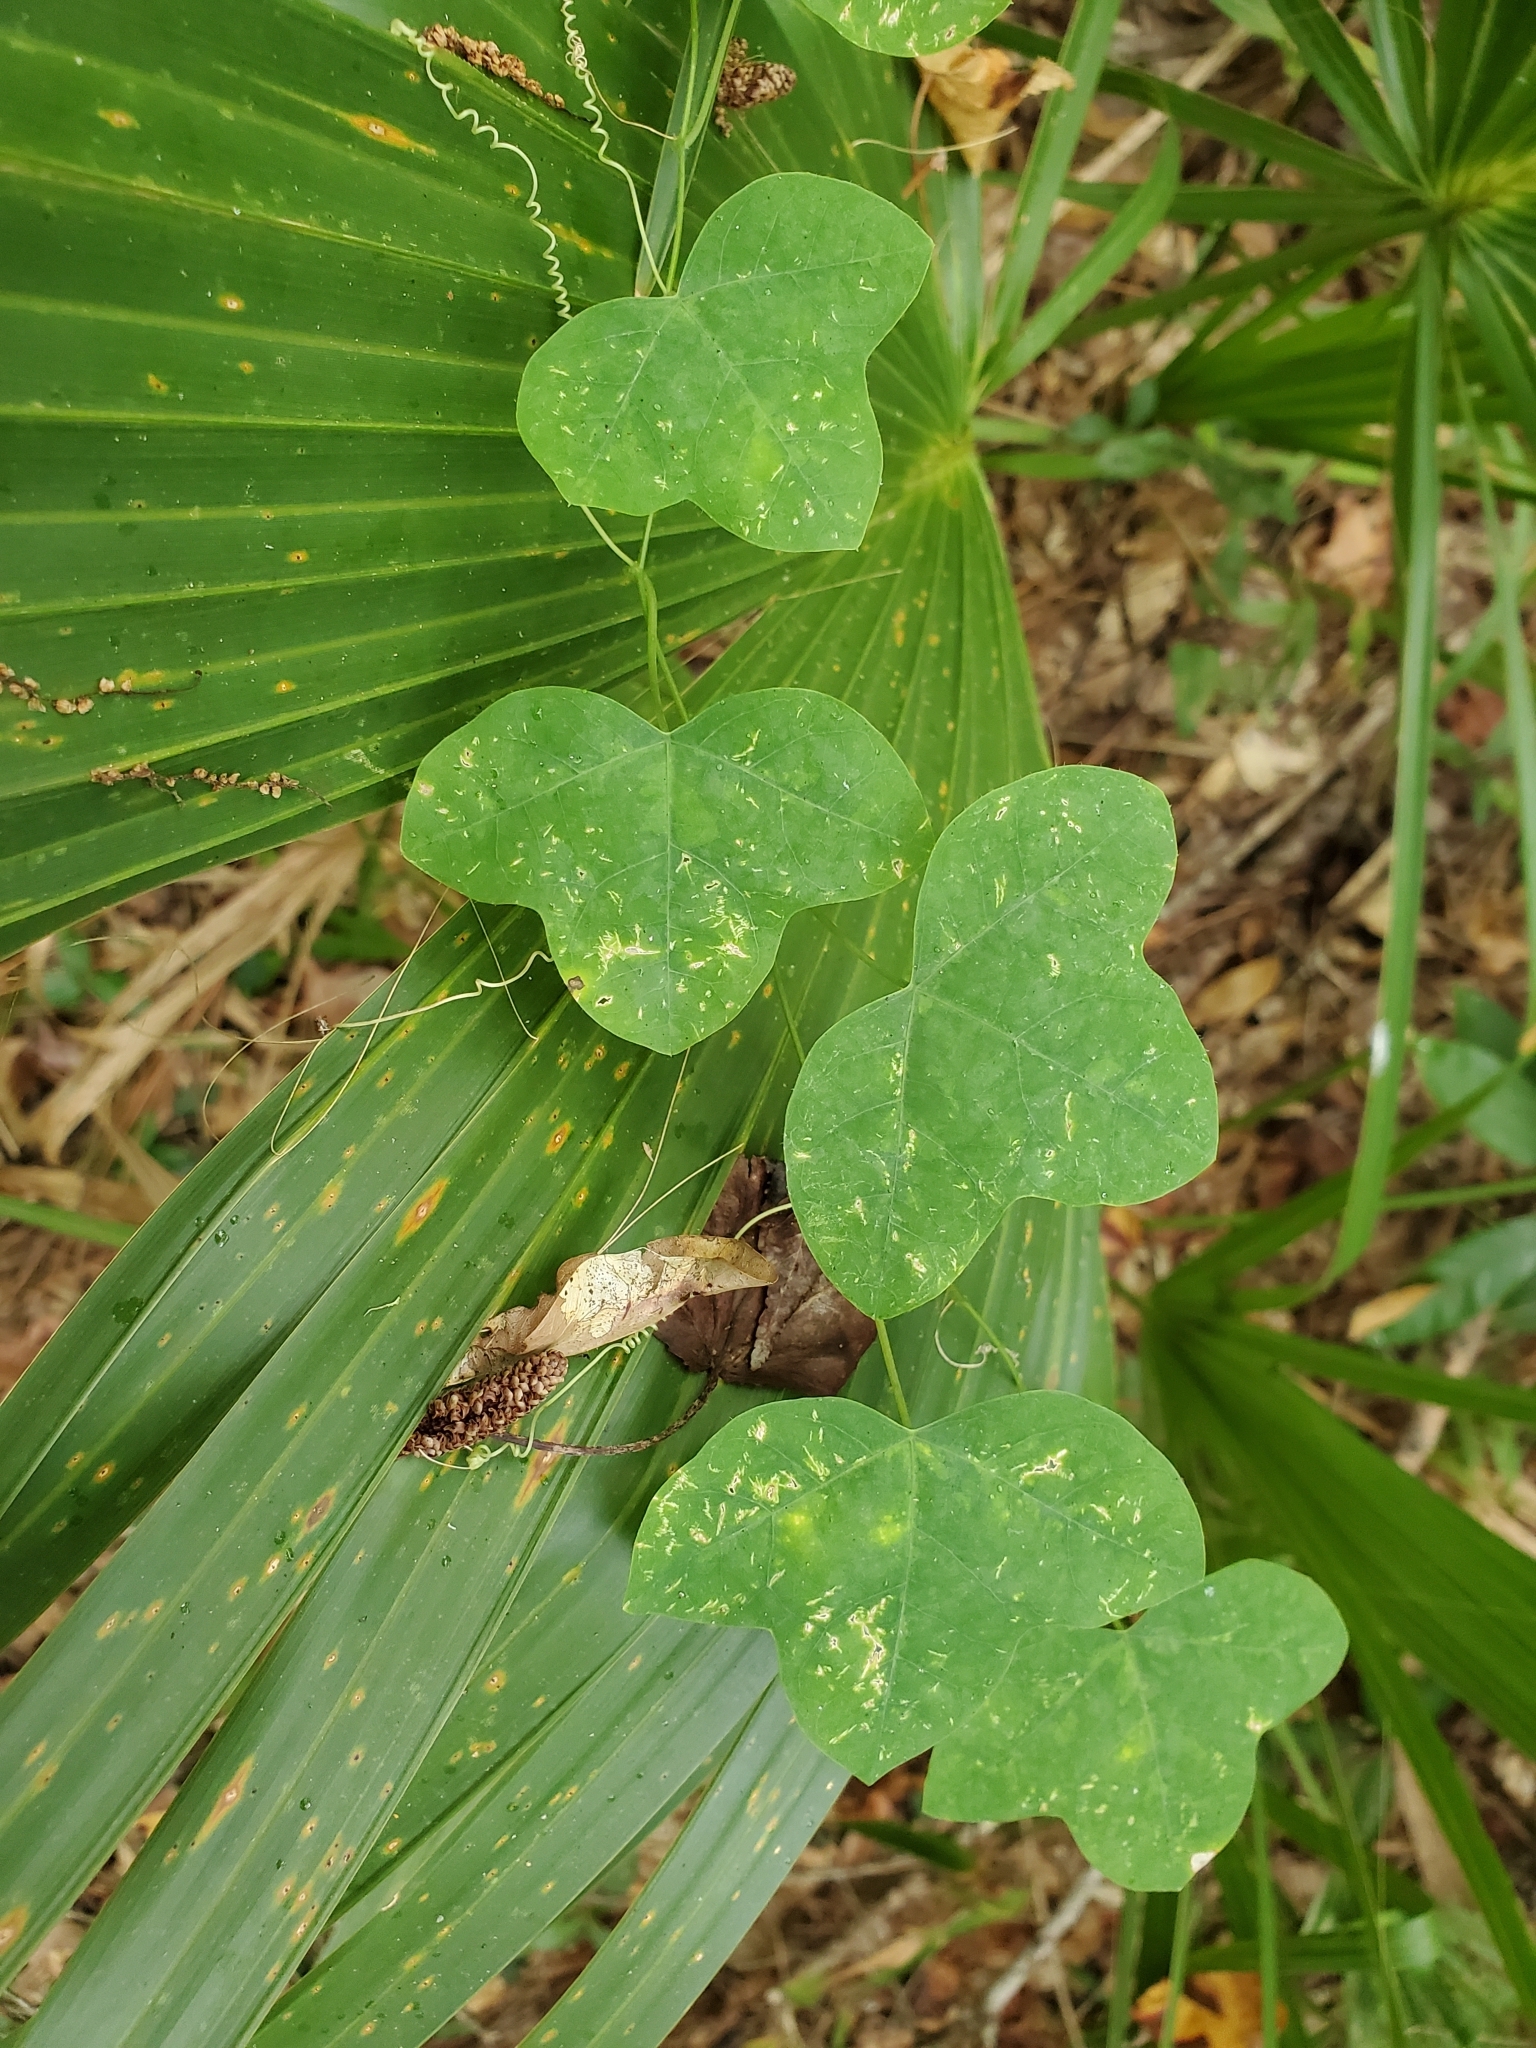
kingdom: Plantae
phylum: Tracheophyta
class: Magnoliopsida
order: Malpighiales
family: Passifloraceae
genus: Passiflora
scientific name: Passiflora lutea
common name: Yellow passionflower
